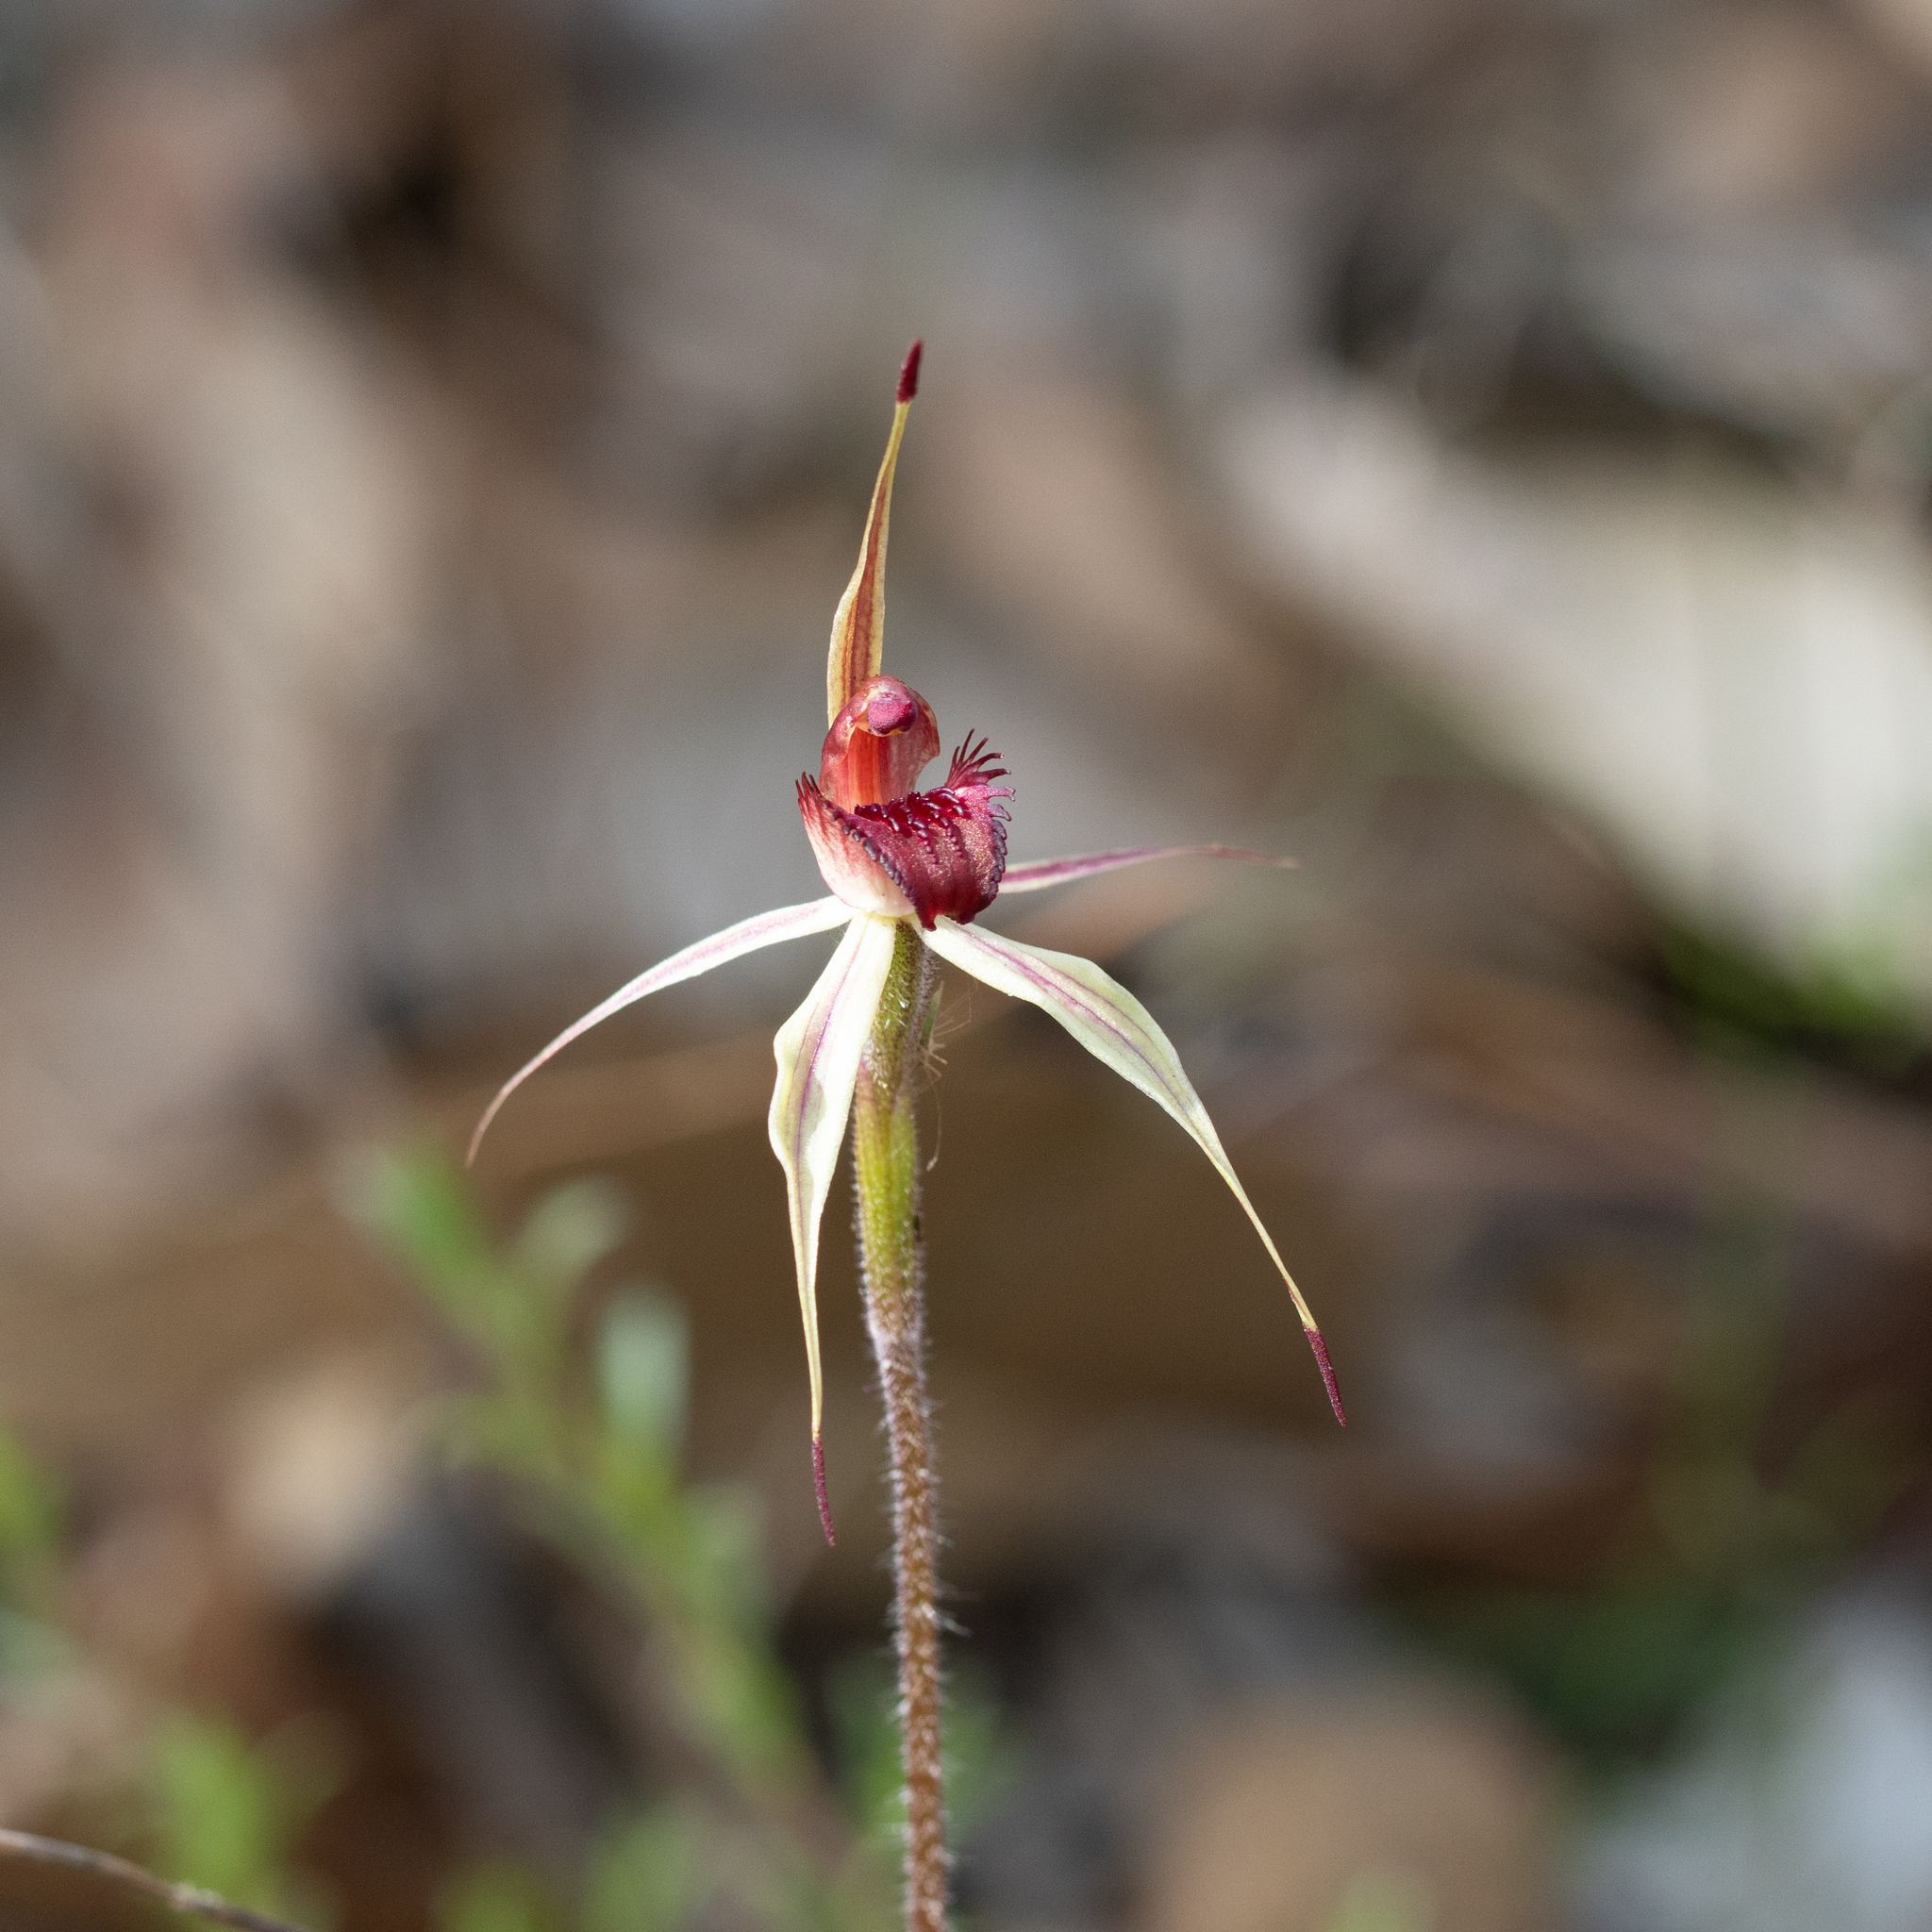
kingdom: Plantae
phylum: Tracheophyta
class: Liliopsida
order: Asparagales
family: Orchidaceae
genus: Caladenia
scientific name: Caladenia reticulata
